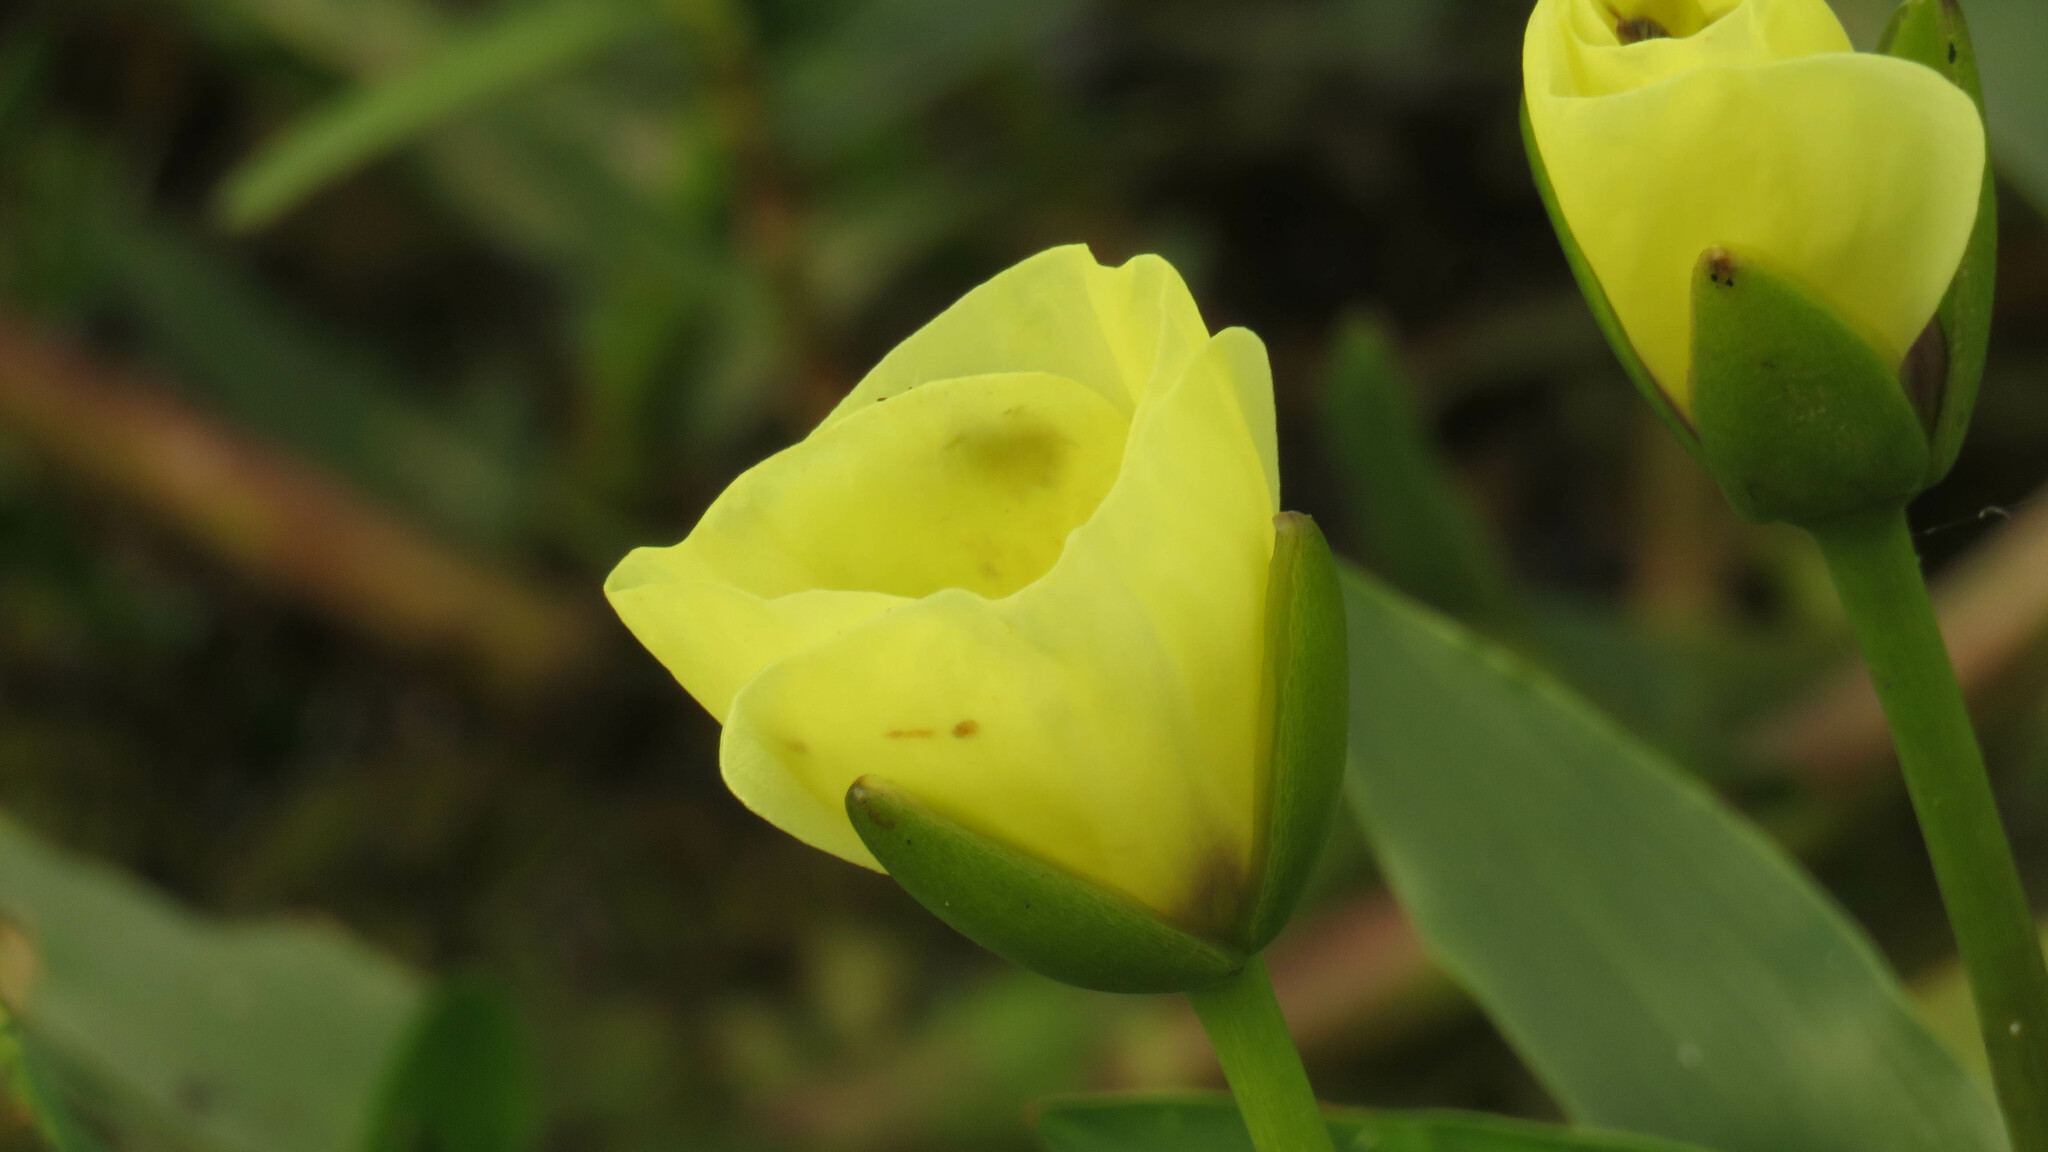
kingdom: Plantae
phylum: Tracheophyta
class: Liliopsida
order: Alismatales
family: Alismataceae
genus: Hydrocleys
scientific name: Hydrocleys nymphoides
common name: Water-poppy
